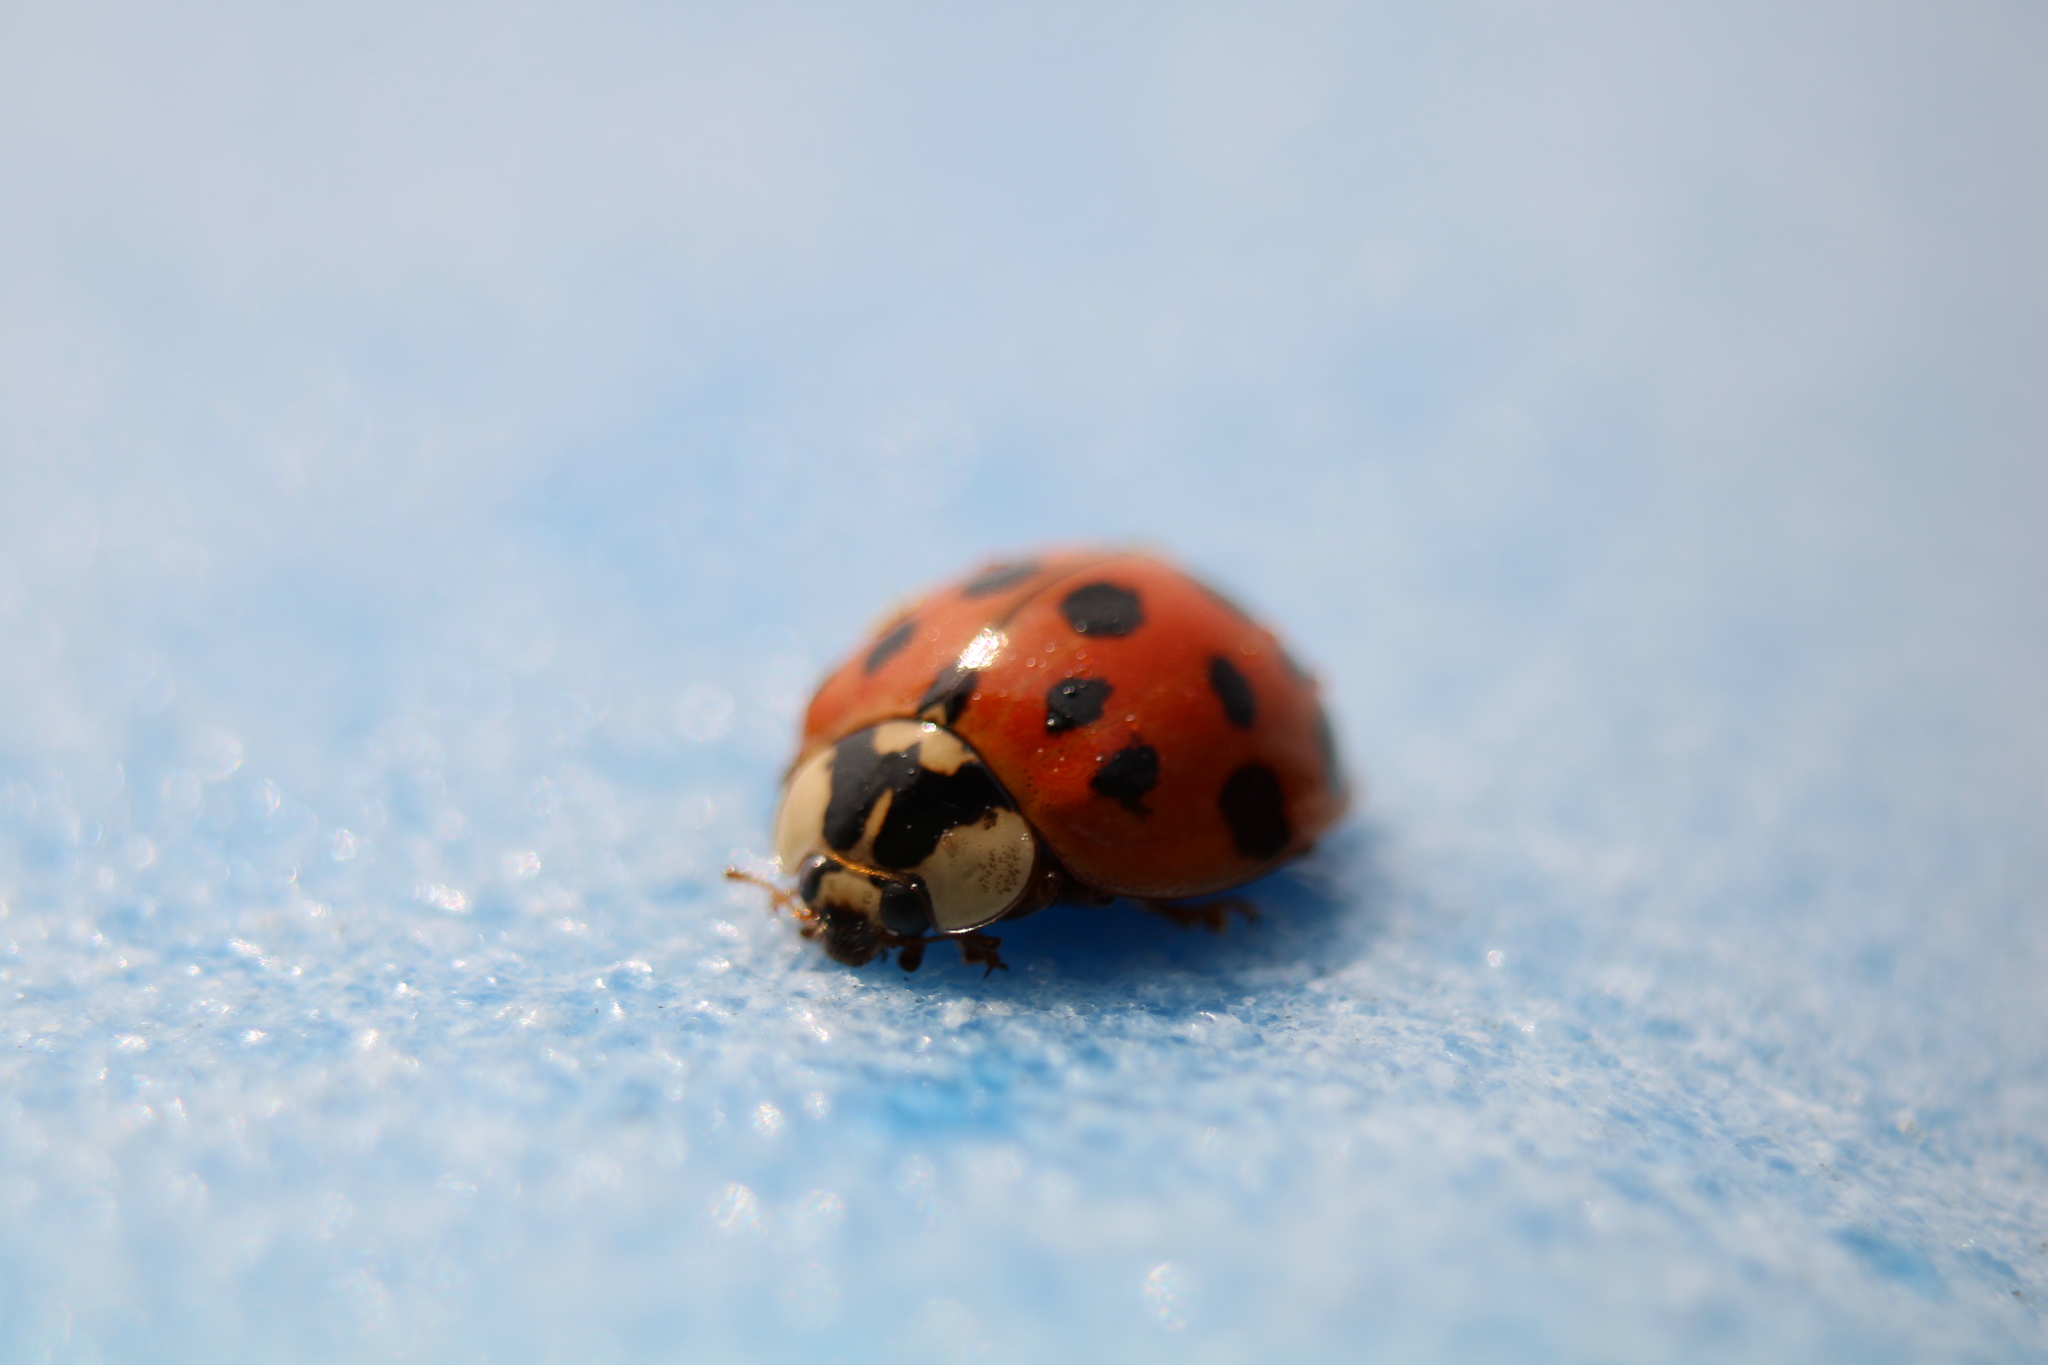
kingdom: Animalia
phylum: Arthropoda
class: Insecta
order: Coleoptera
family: Coccinellidae
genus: Harmonia
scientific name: Harmonia axyridis
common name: Harlequin ladybird
